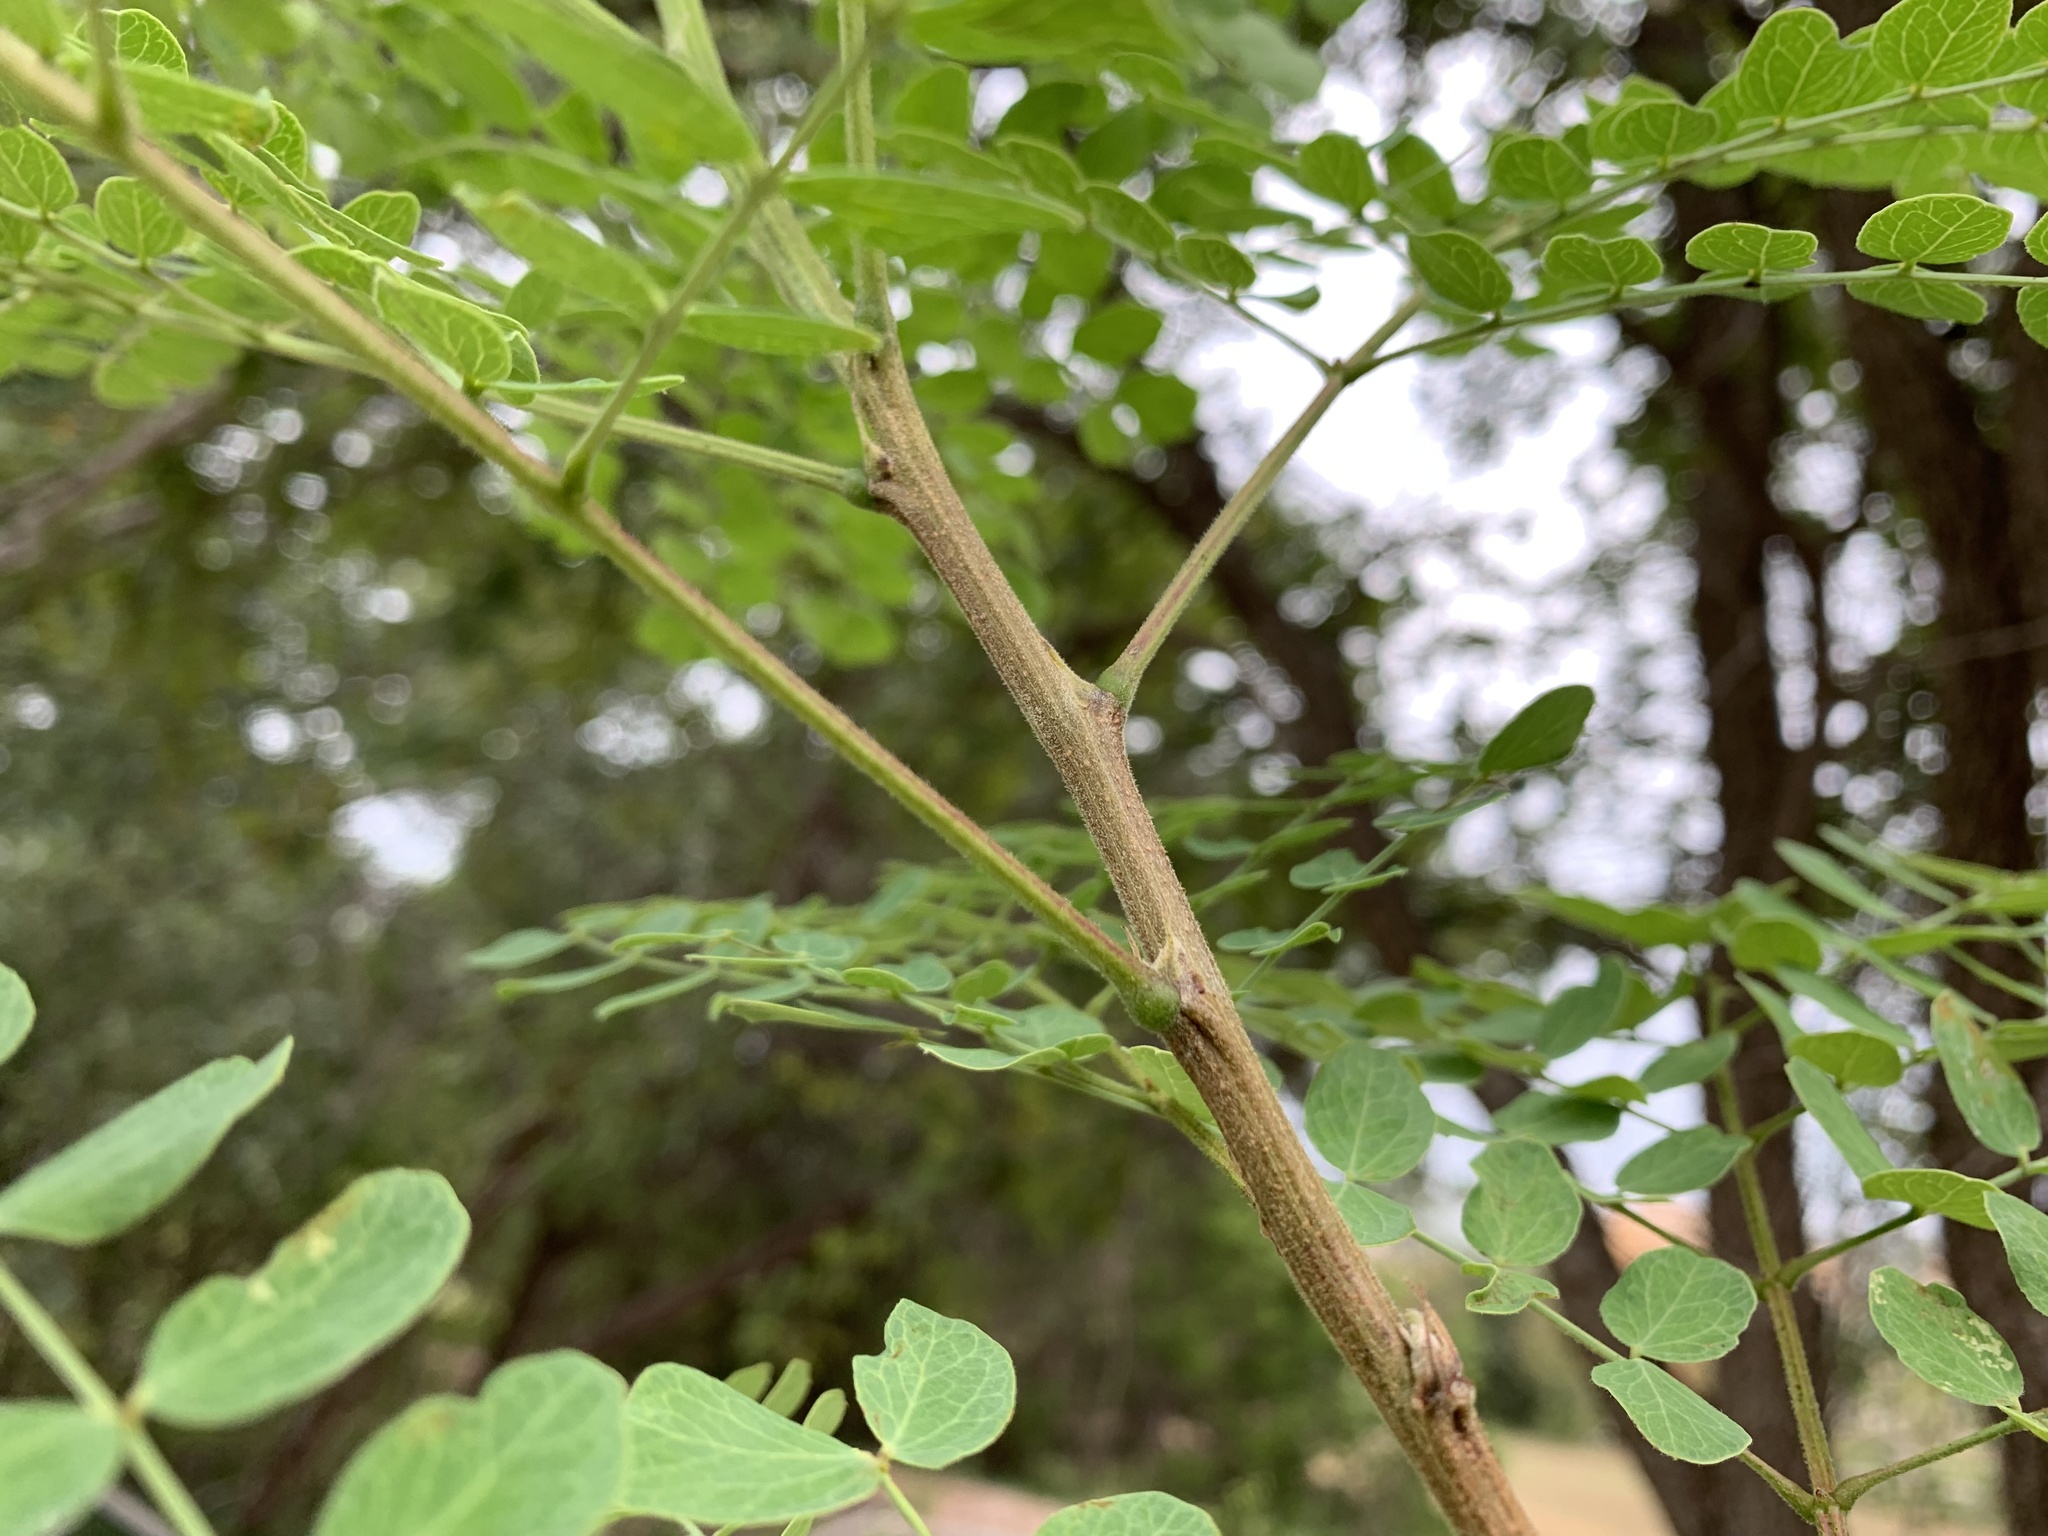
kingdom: Plantae
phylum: Tracheophyta
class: Magnoliopsida
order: Fabales
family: Fabaceae
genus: Leucaena
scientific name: Leucaena retusa
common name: Littleleaf leadtree
